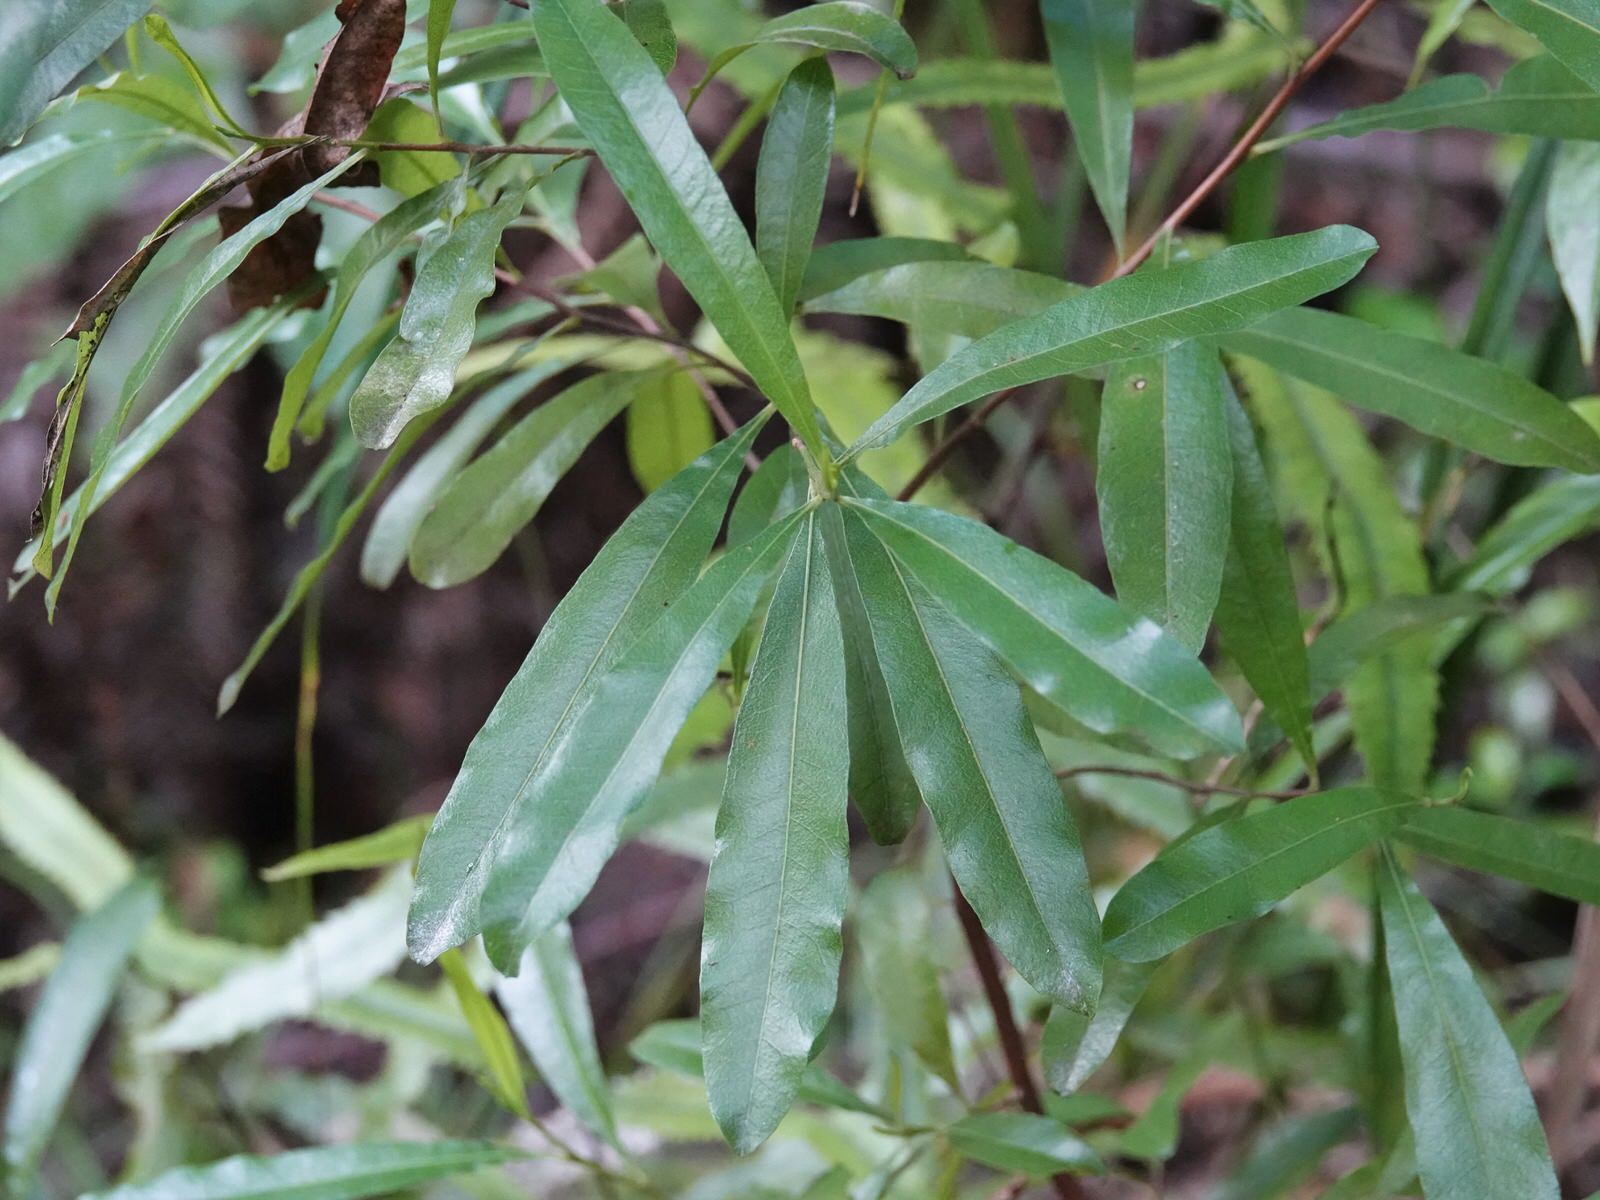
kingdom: Plantae
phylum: Tracheophyta
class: Magnoliopsida
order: Sapindales
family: Sapindaceae
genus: Dodonaea
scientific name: Dodonaea viscosa
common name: Hopbush
